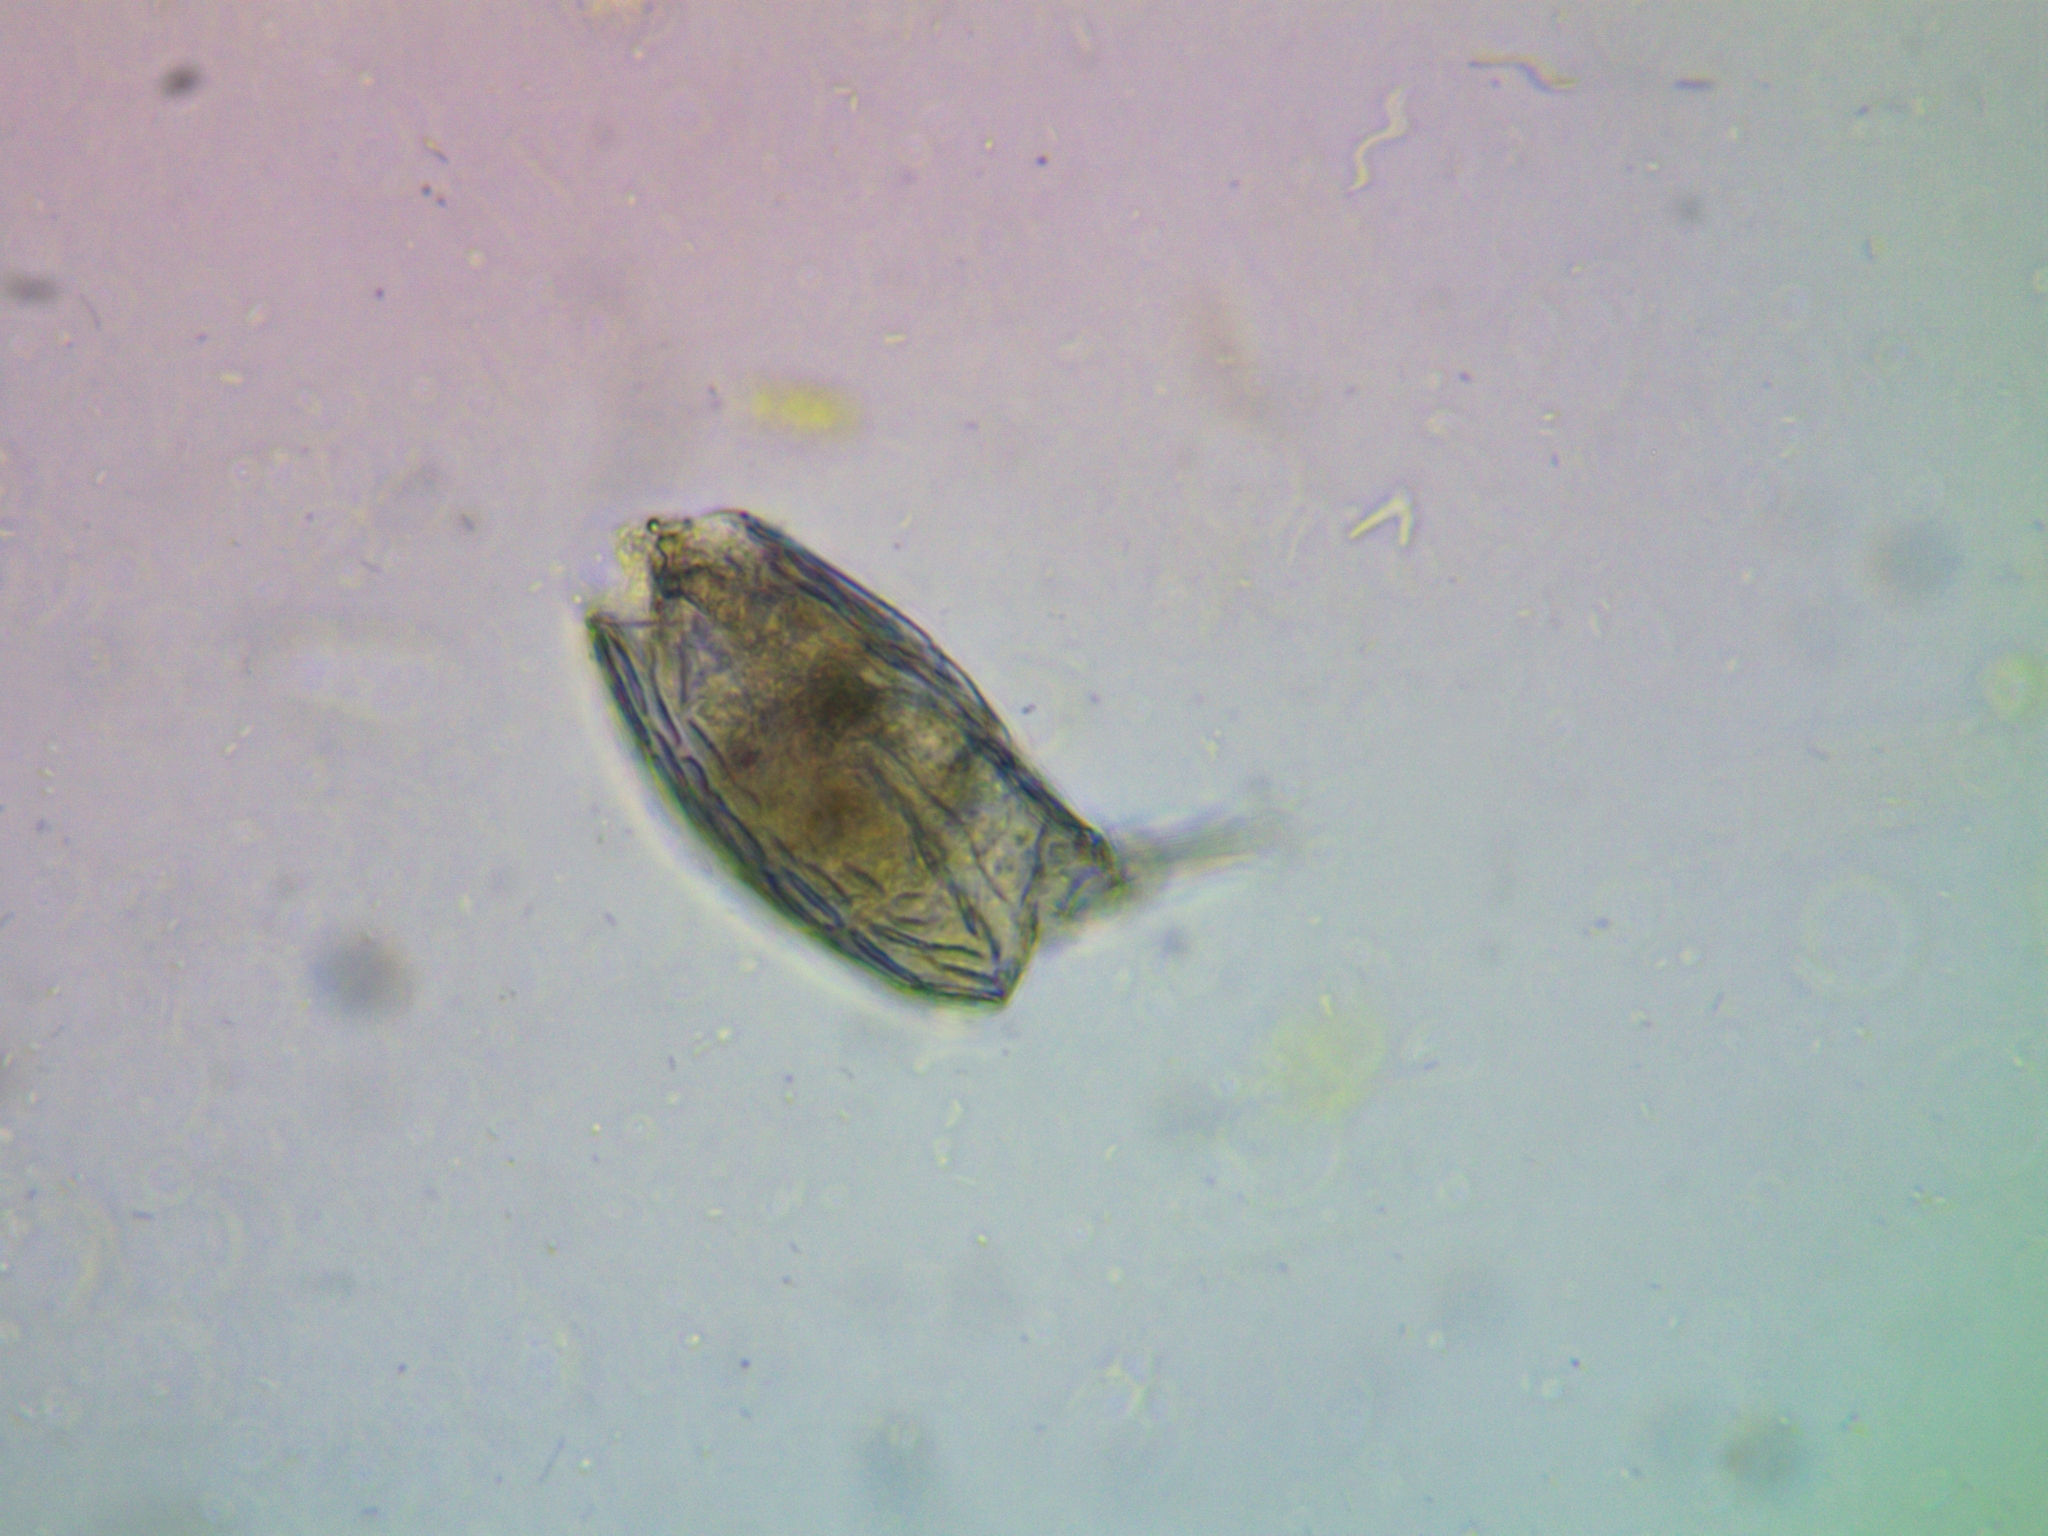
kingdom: Animalia
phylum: Rotifera
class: Eurotatoria
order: Ploima
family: Lecanidae
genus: Lecane
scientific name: Lecane stichaea
